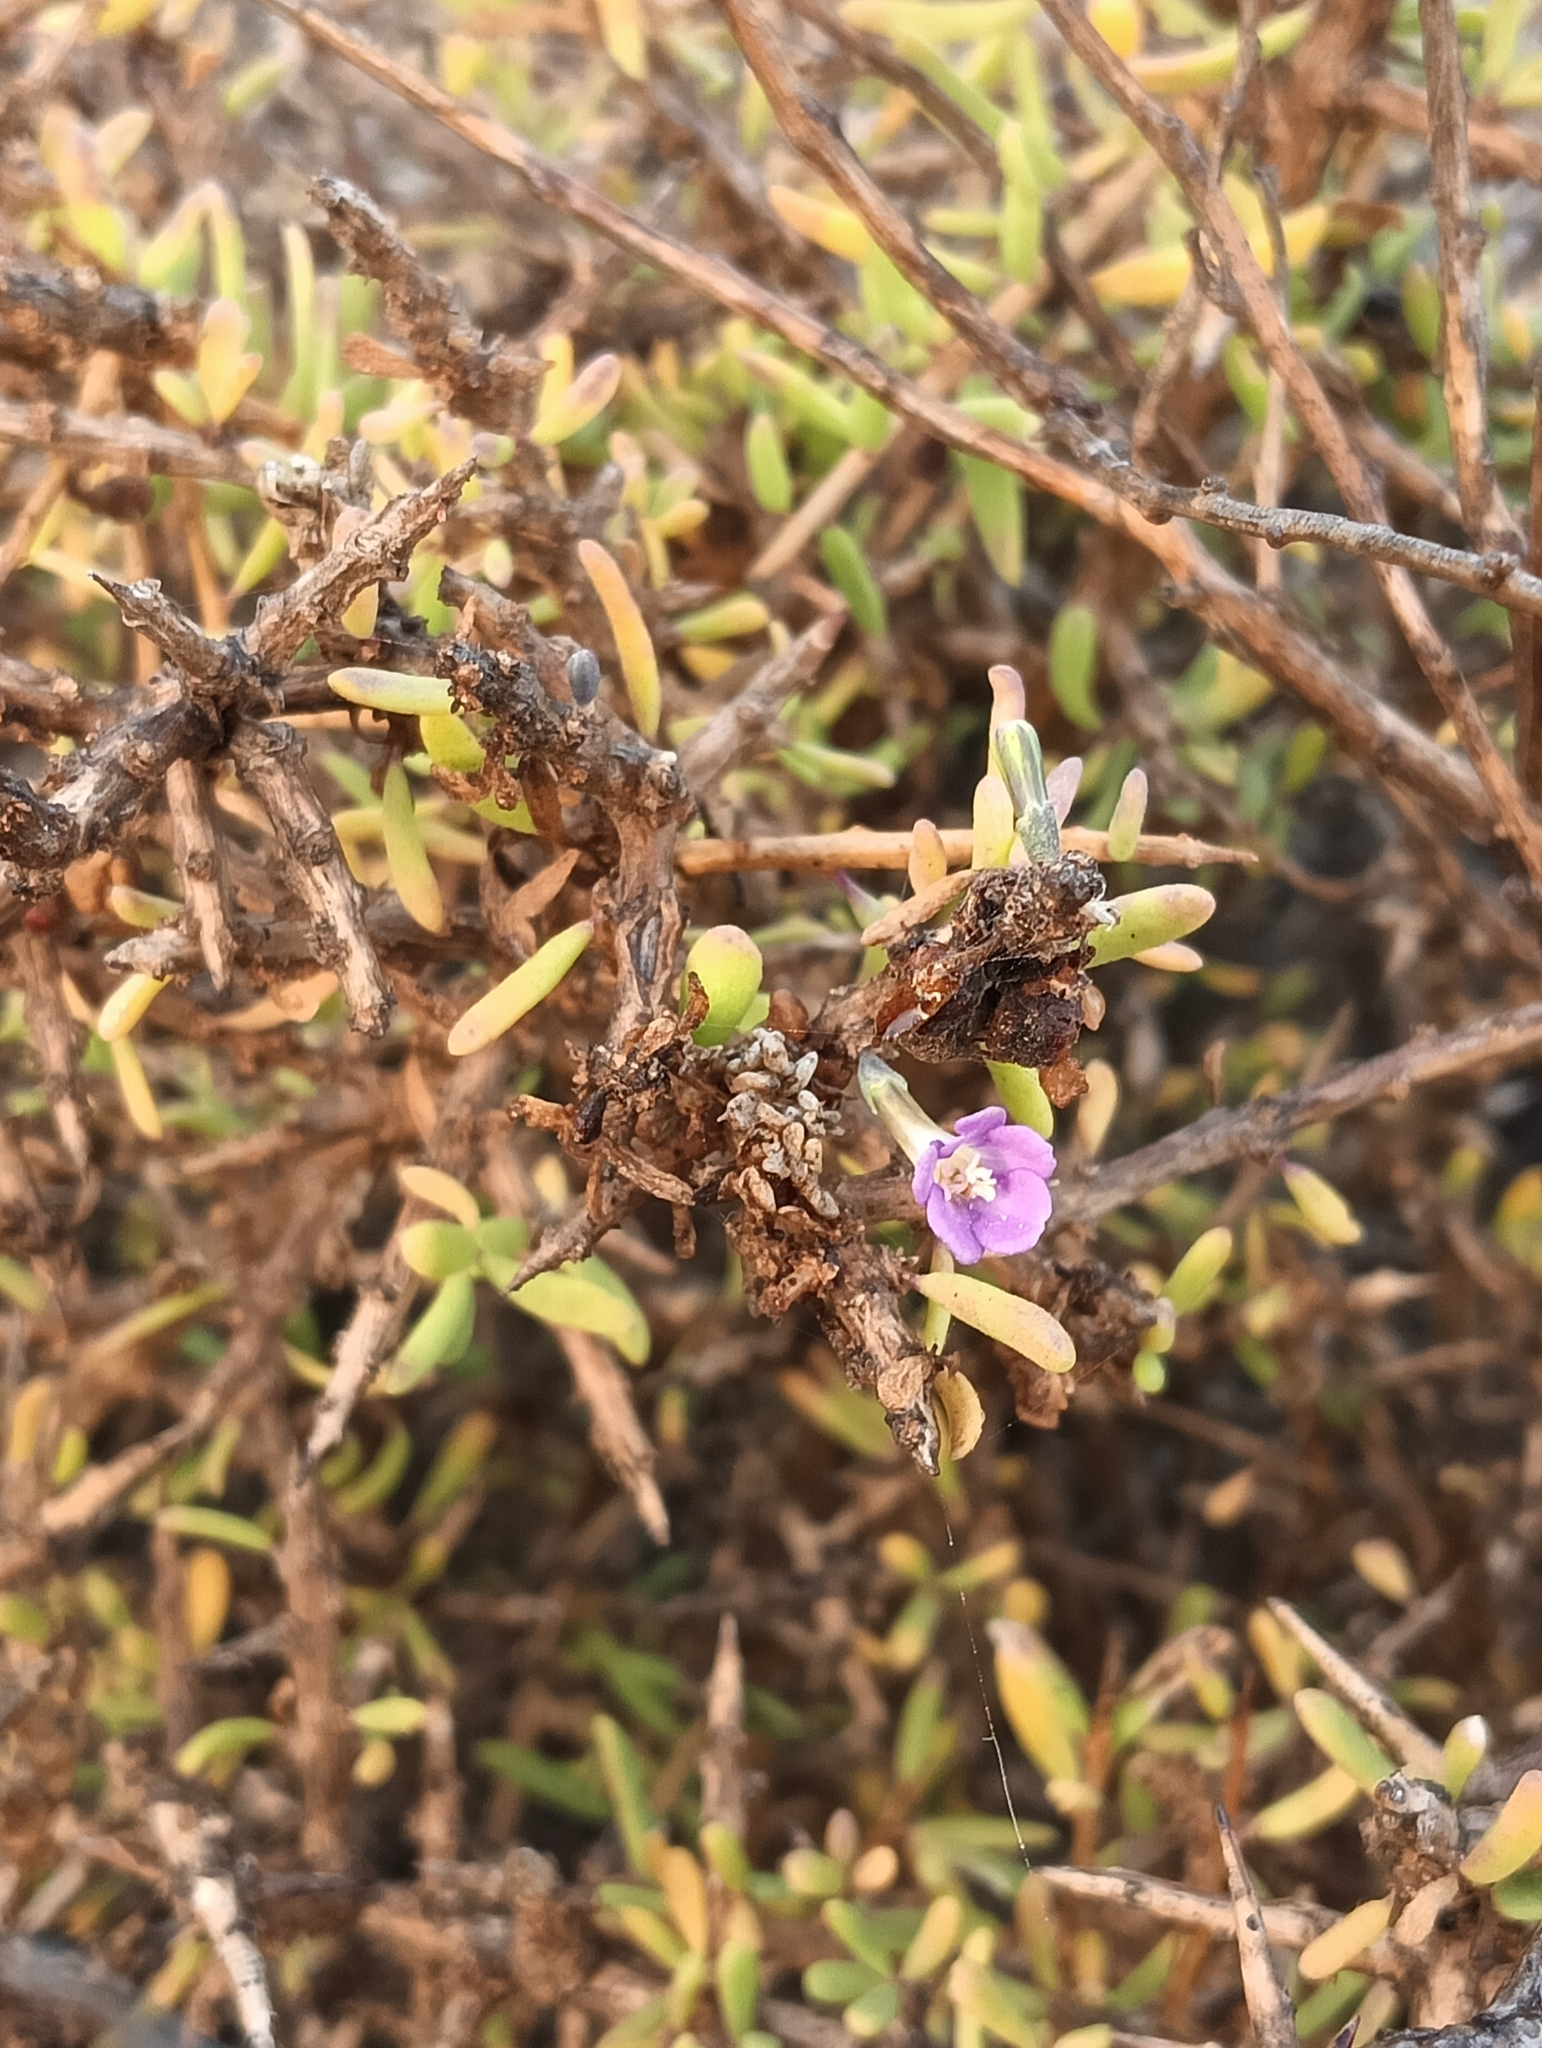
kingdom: Plantae
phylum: Tracheophyta
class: Magnoliopsida
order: Solanales
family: Solanaceae
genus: Lycium
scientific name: Lycium intricatum
